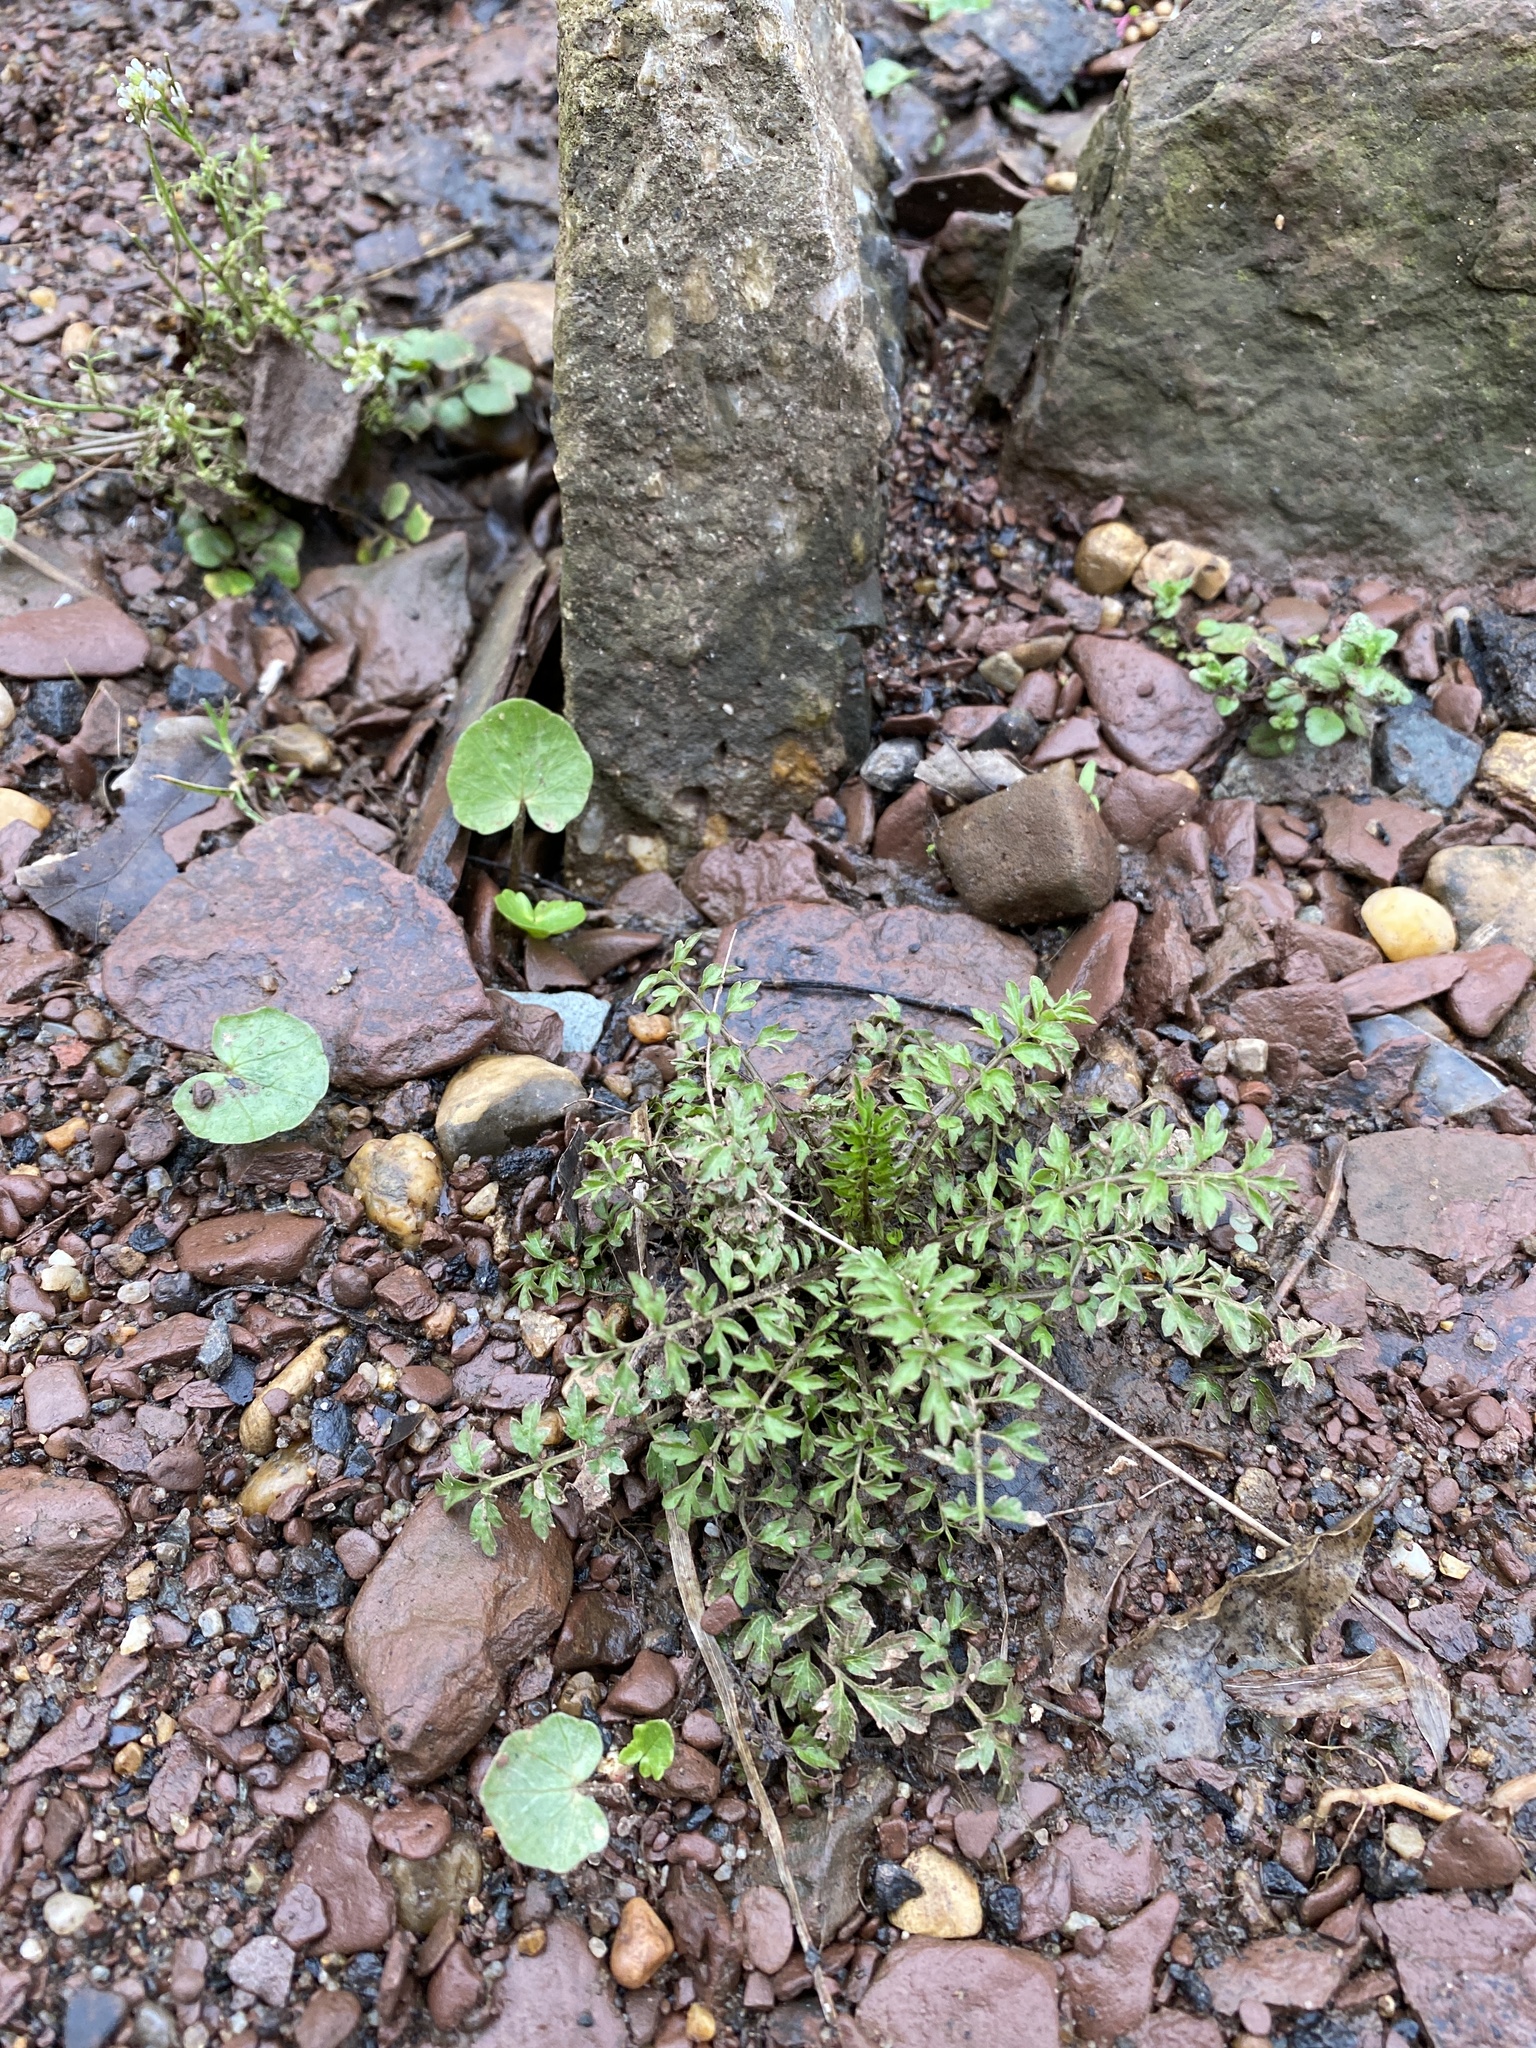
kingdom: Plantae
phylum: Tracheophyta
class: Magnoliopsida
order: Brassicales
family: Brassicaceae
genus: Cardamine
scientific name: Cardamine impatiens
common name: Narrow-leaved bitter-cress
